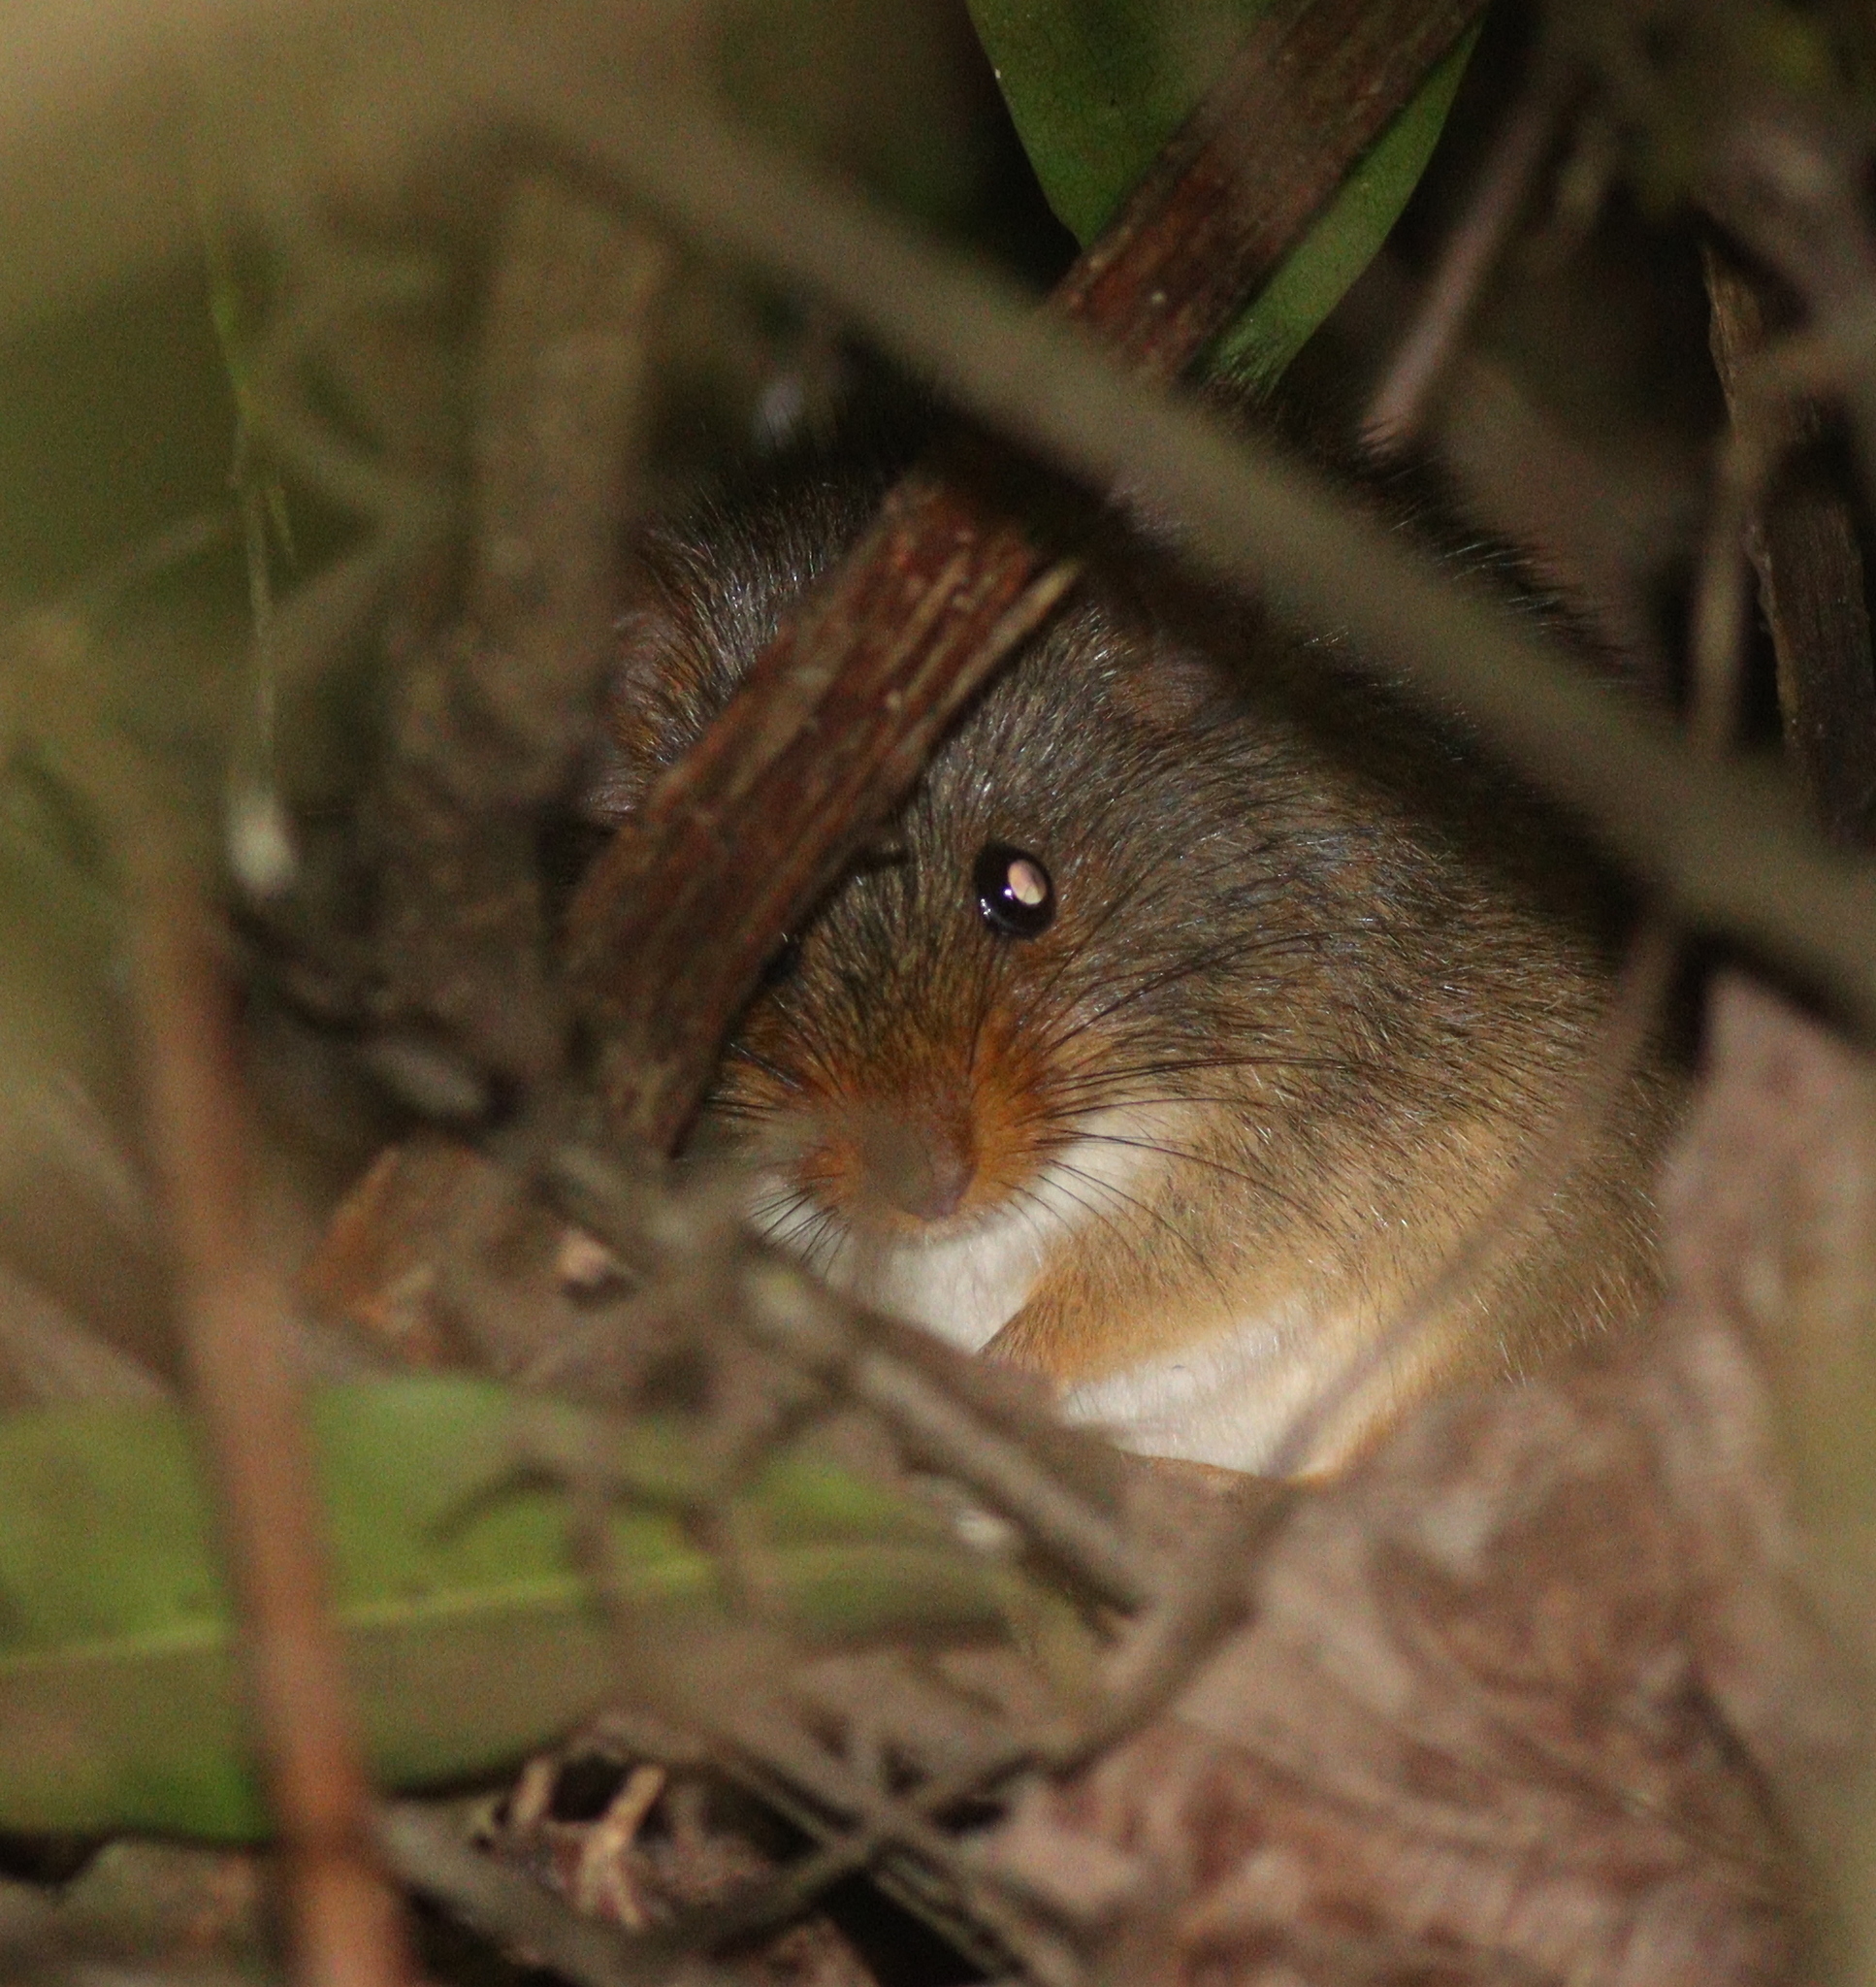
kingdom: Animalia
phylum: Chordata
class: Mammalia
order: Rodentia
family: Muridae
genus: Oenomys
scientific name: Oenomys hypoxanthus
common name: Common oenomys
